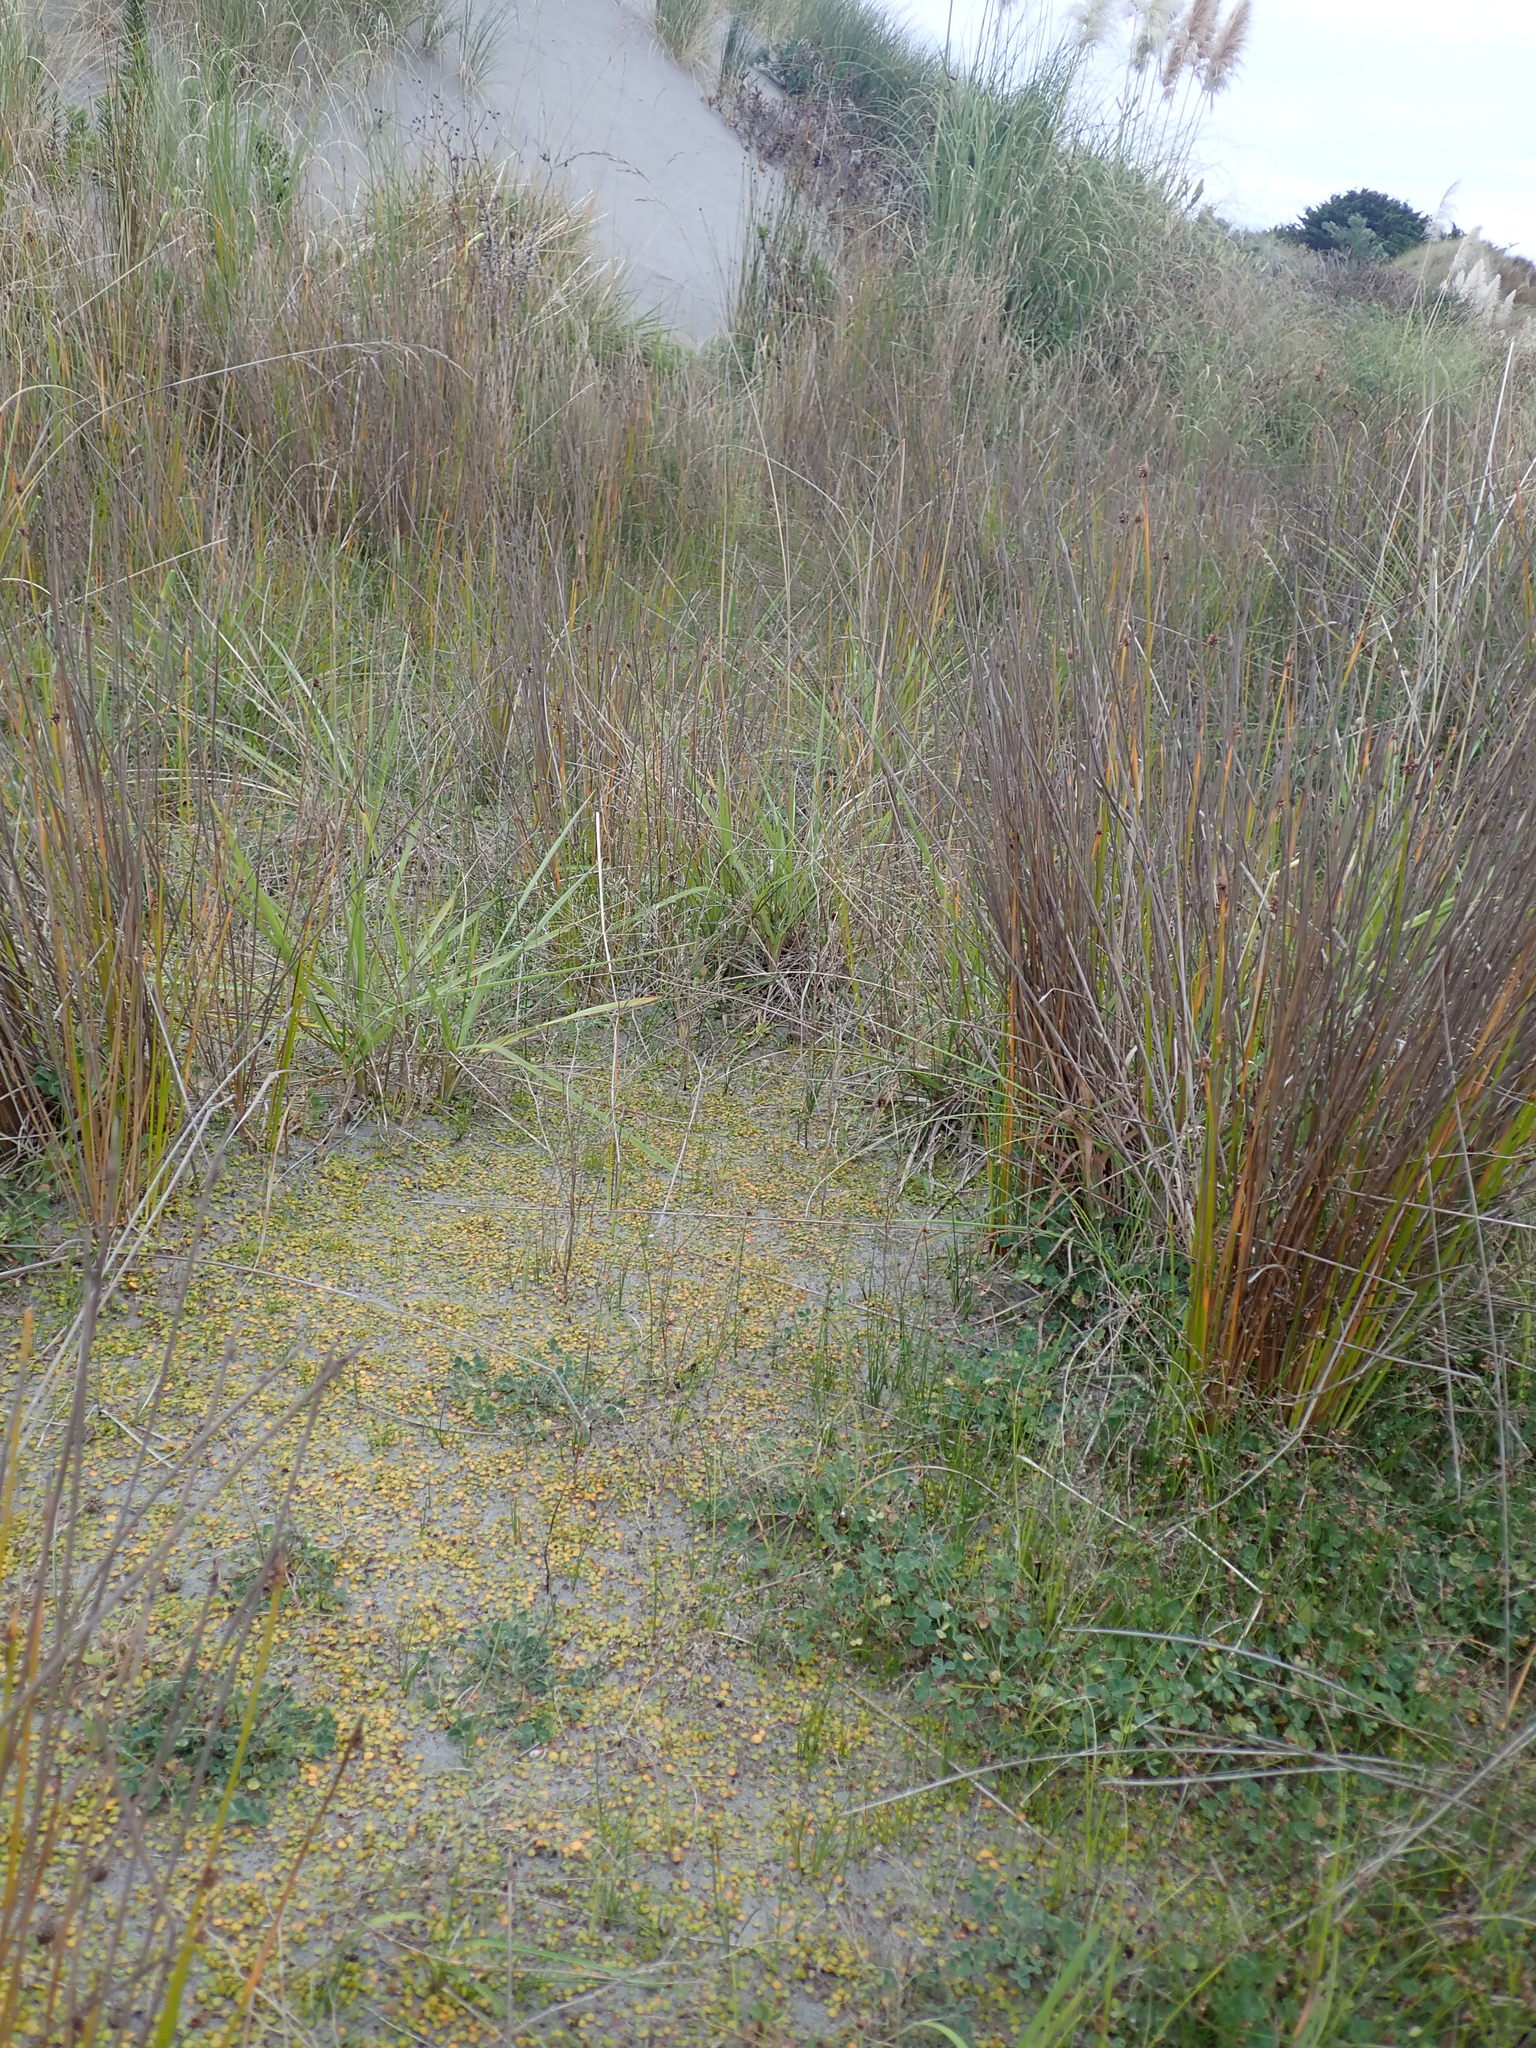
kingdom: Plantae
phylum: Tracheophyta
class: Magnoliopsida
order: Asterales
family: Goodeniaceae
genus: Goodenia
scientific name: Goodenia heenanii
